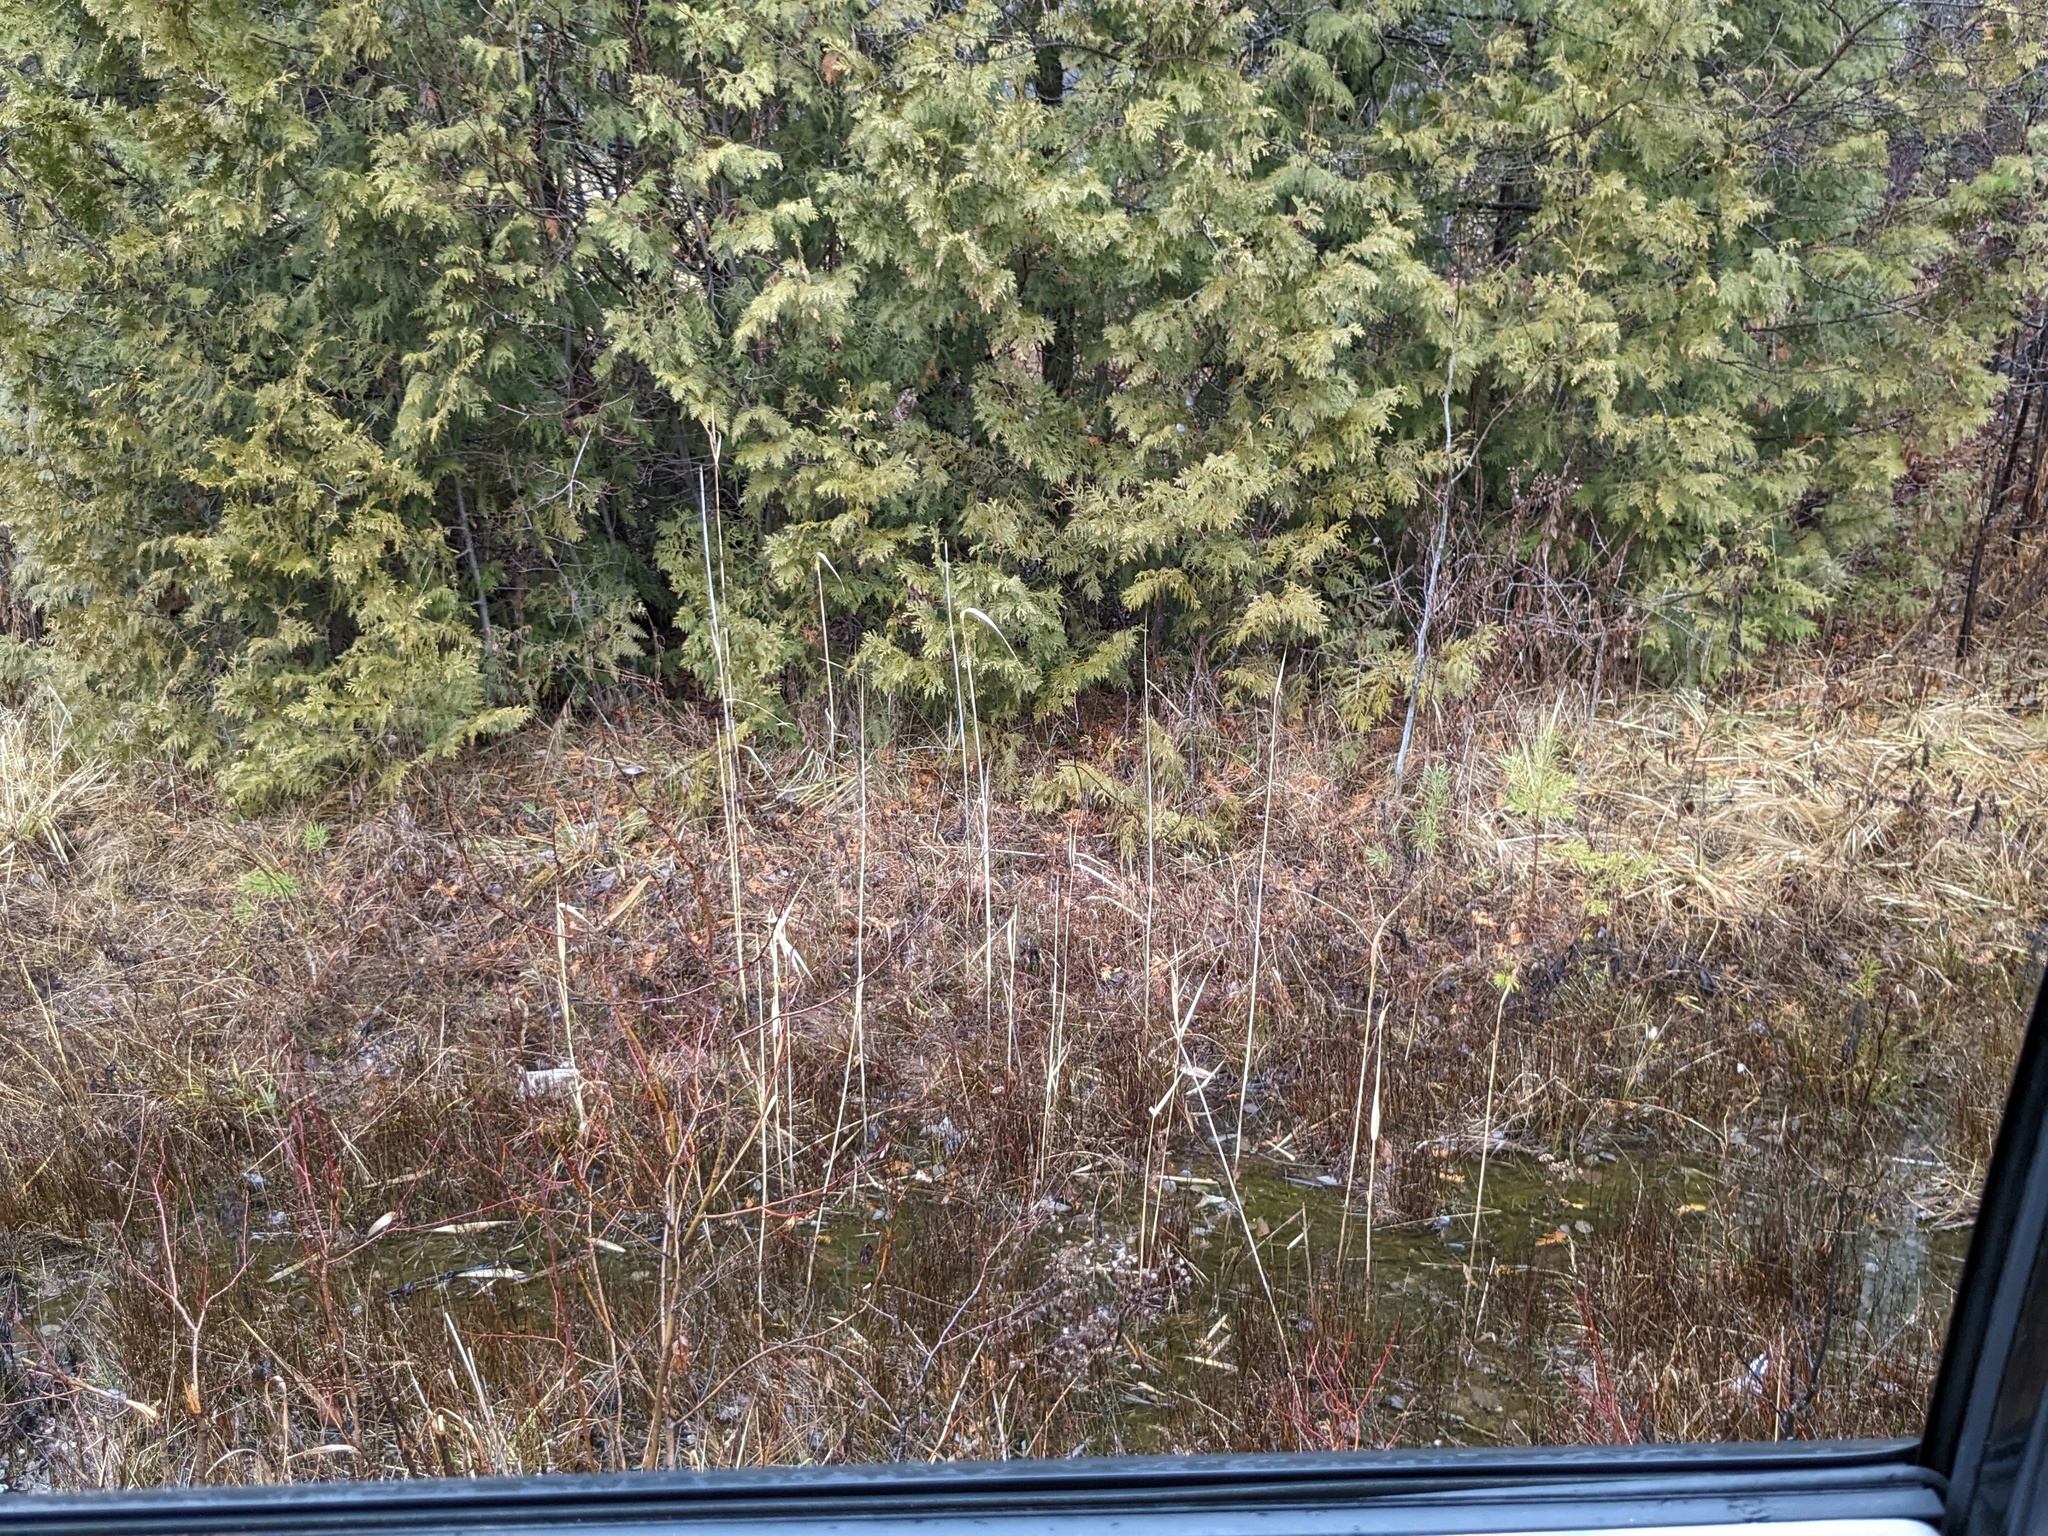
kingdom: Plantae
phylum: Tracheophyta
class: Liliopsida
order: Poales
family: Poaceae
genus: Phragmites
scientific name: Phragmites australis
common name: Common reed
